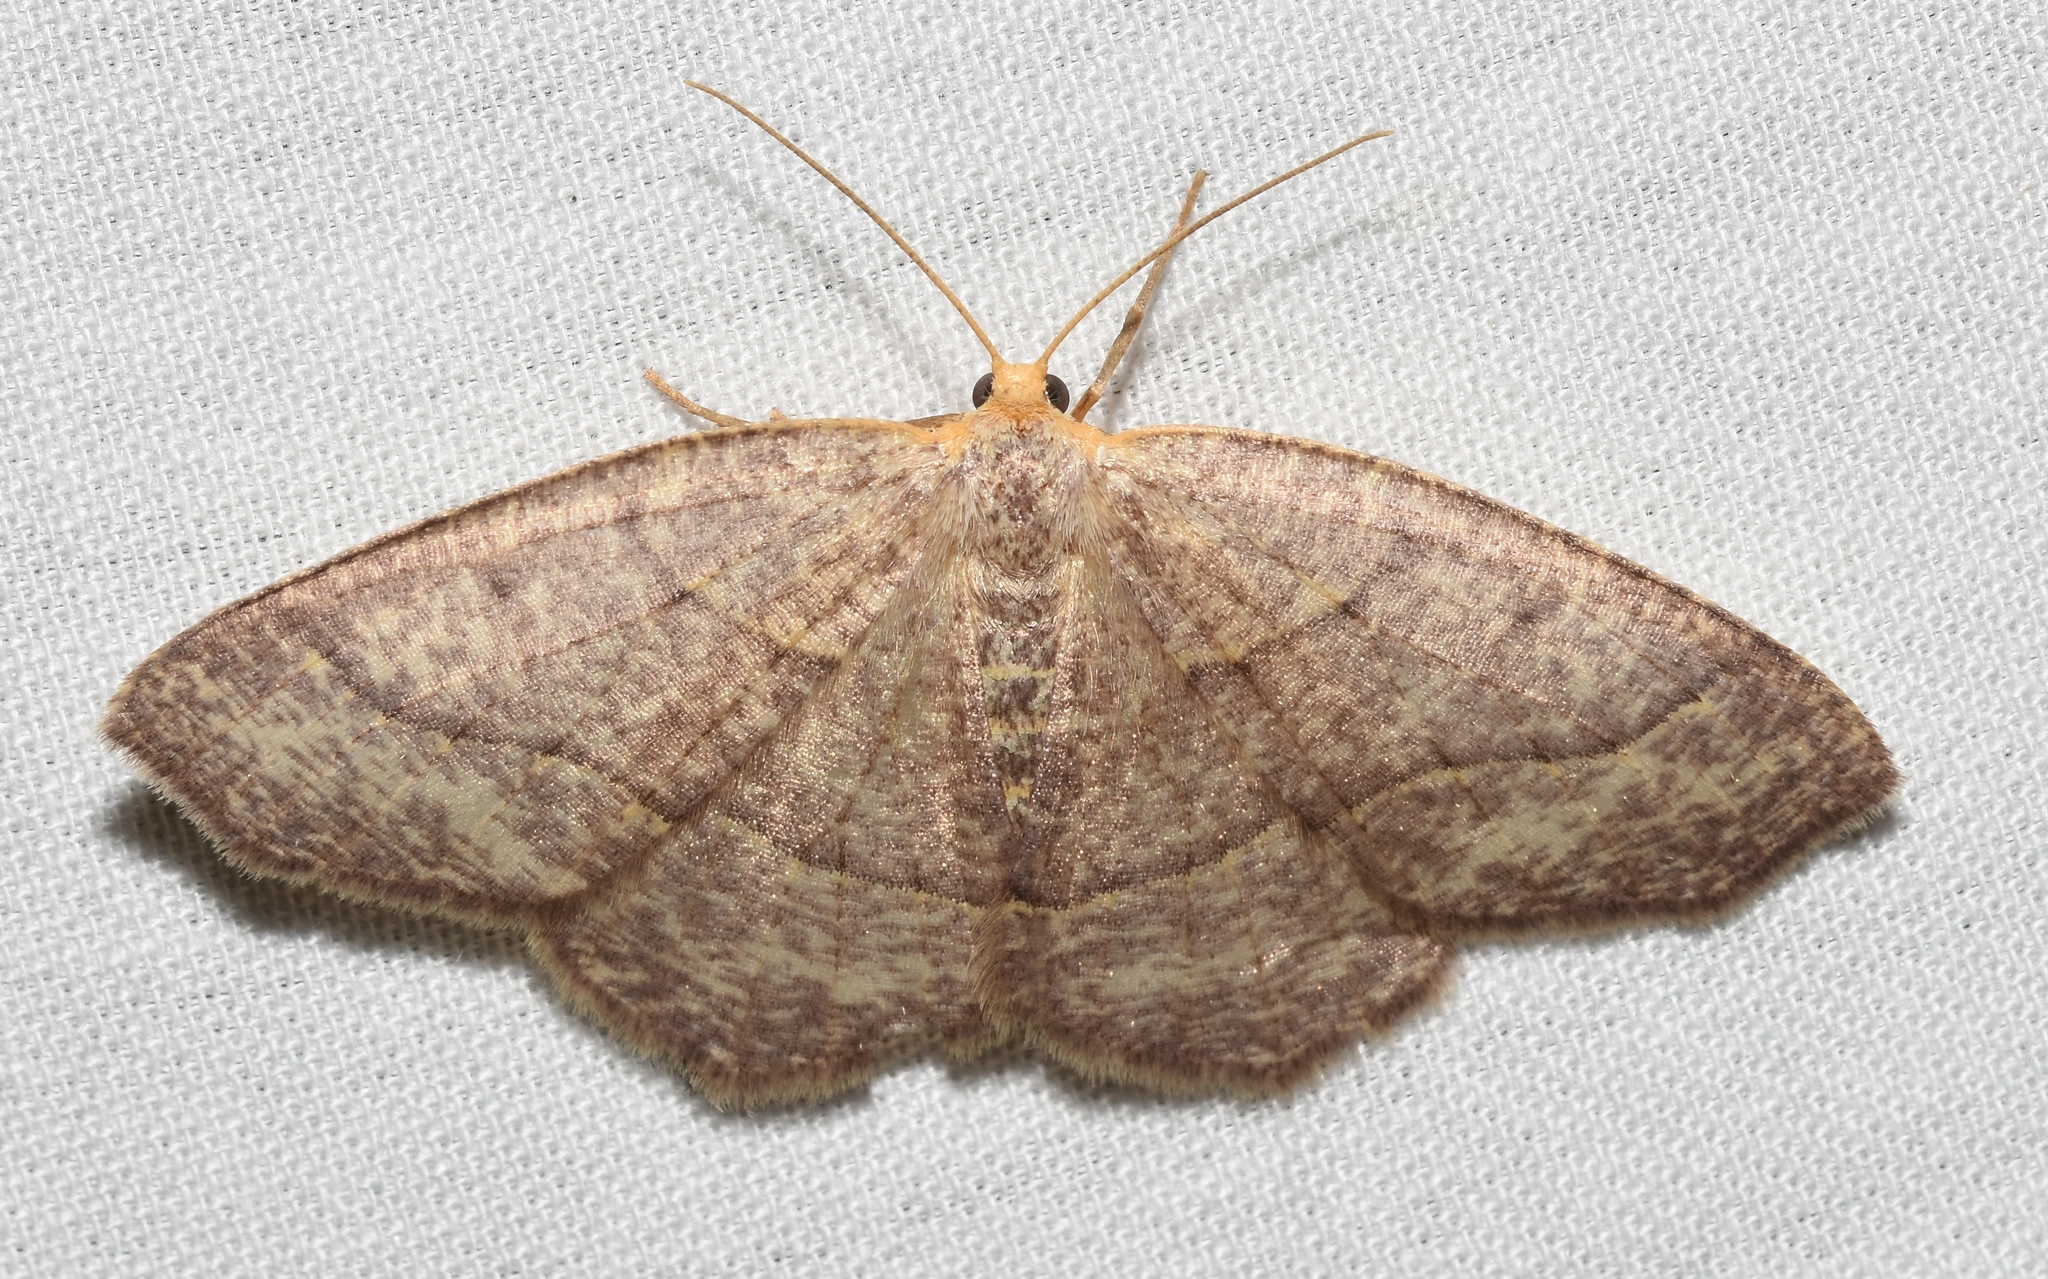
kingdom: Animalia
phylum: Arthropoda
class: Insecta
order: Lepidoptera
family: Geometridae
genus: Lambdina
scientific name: Lambdina fervidaria
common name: Curve-lined looper moth
